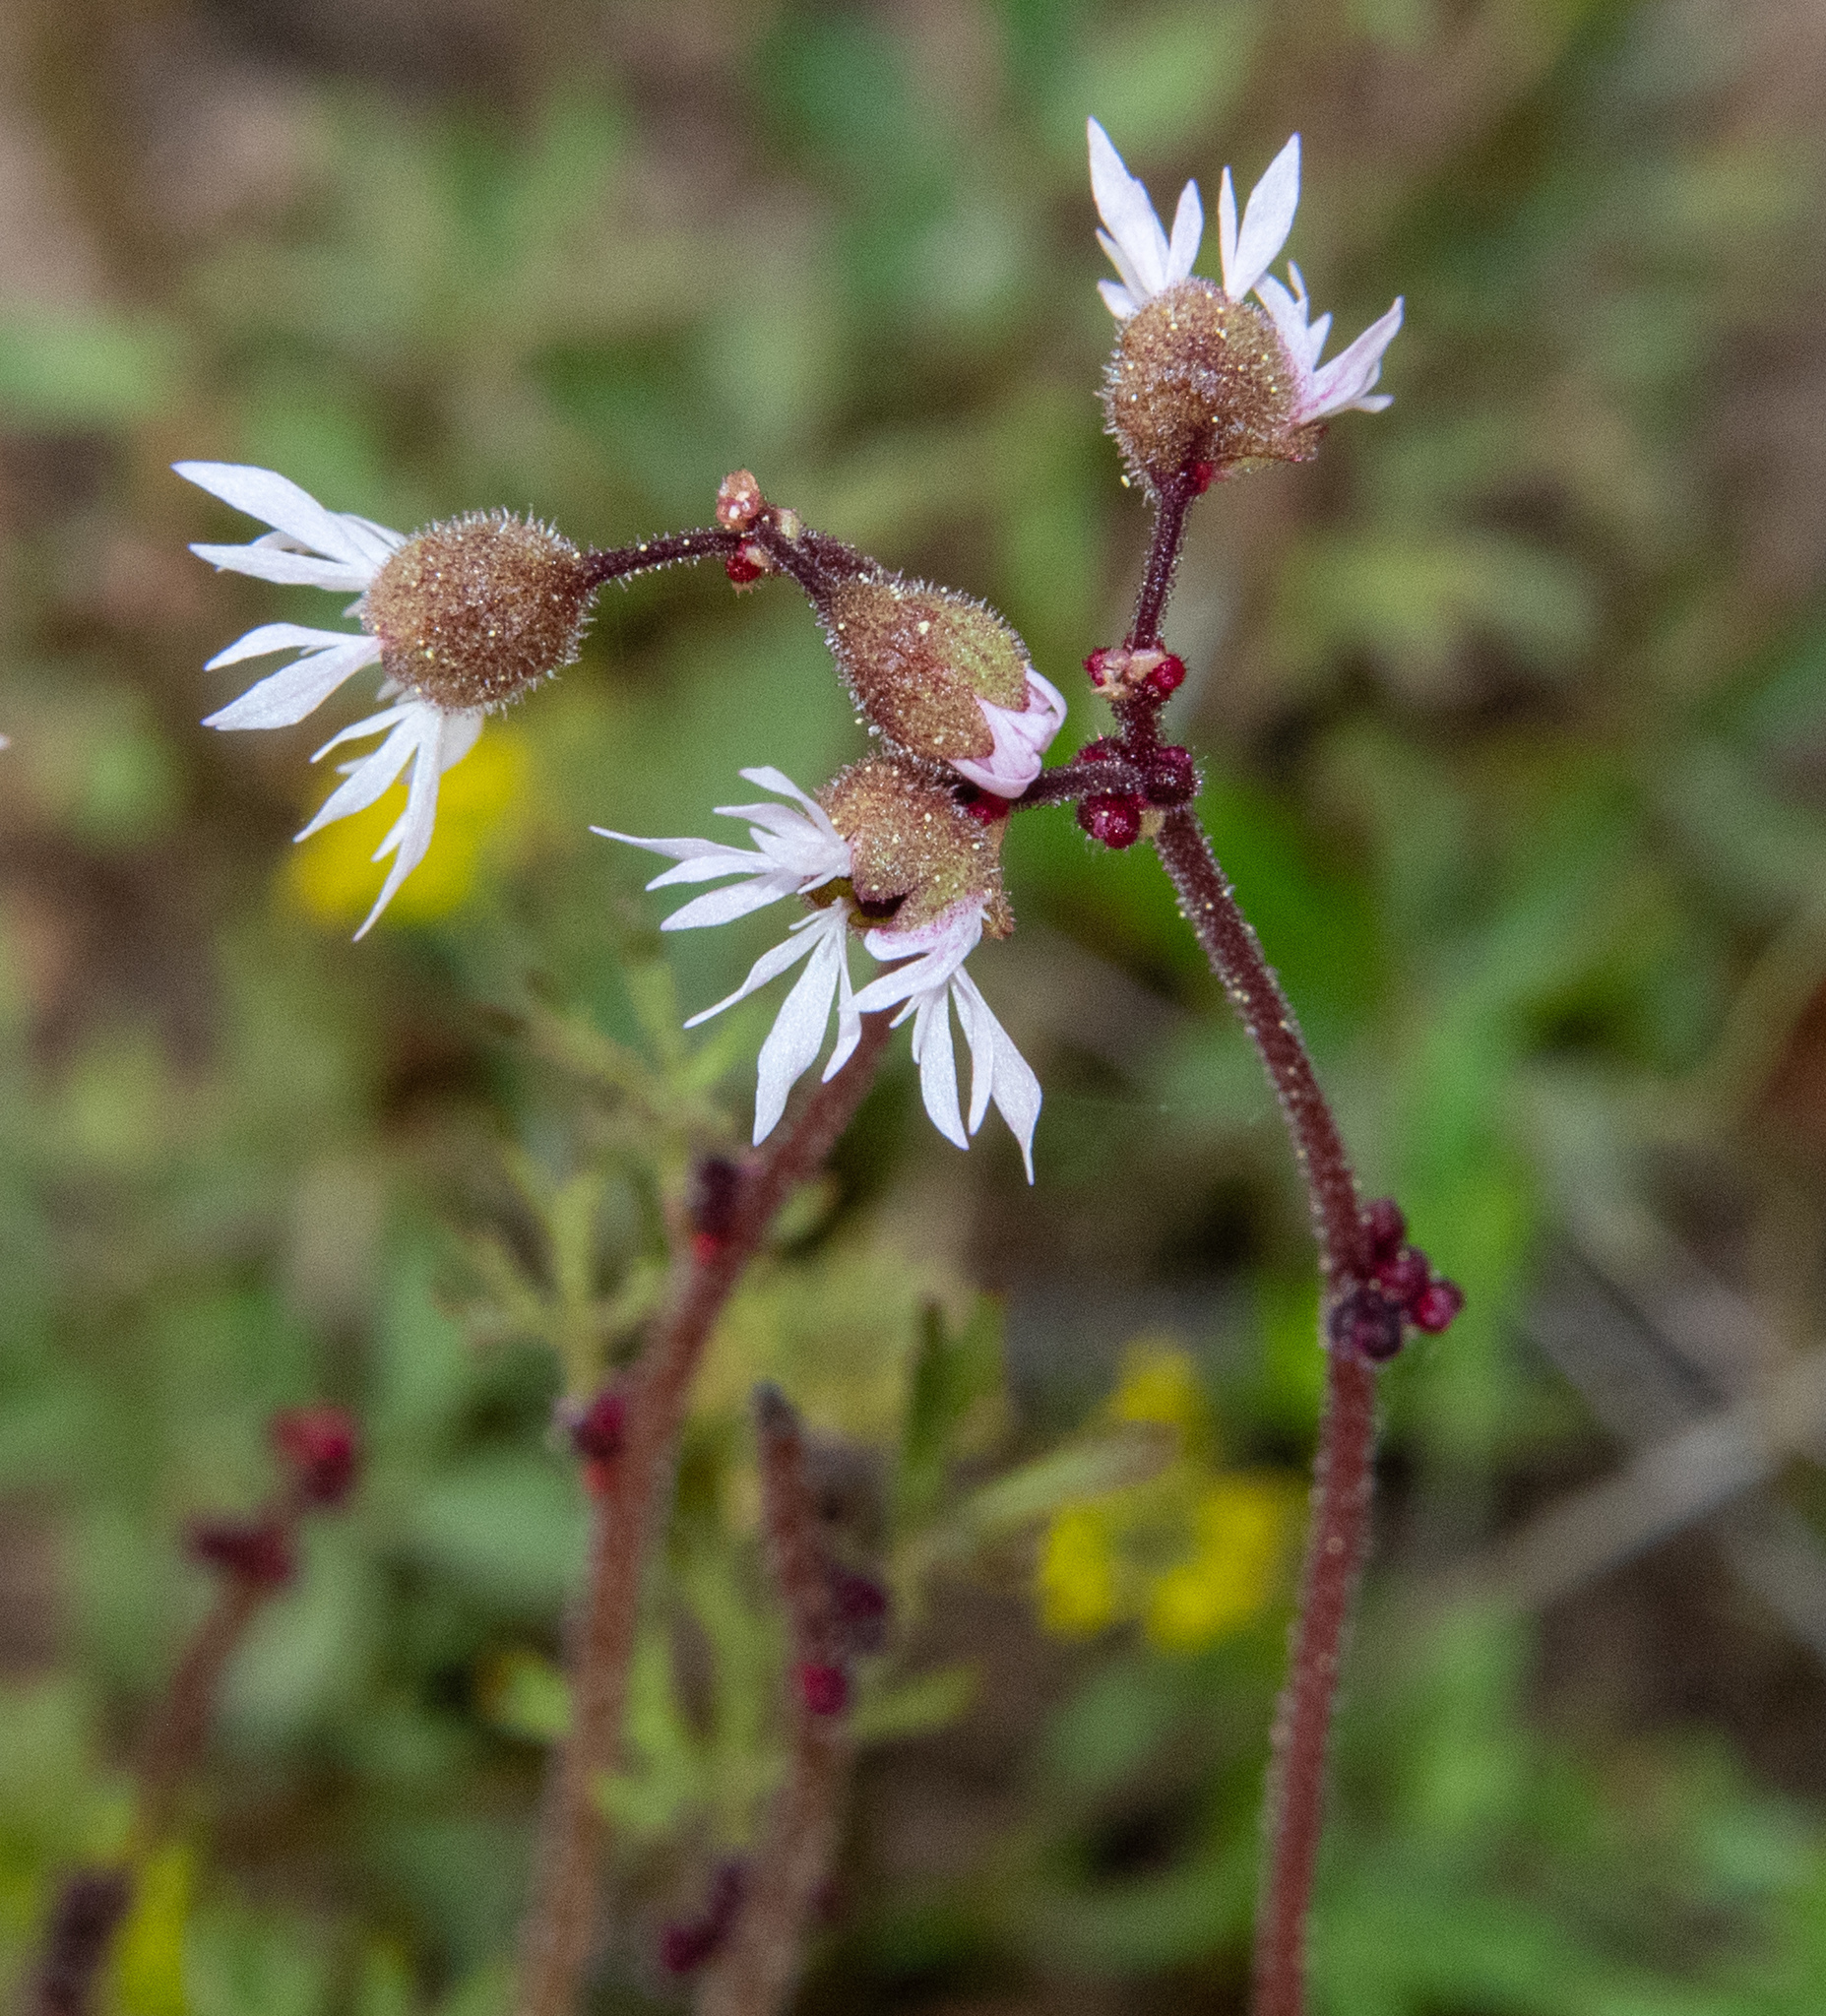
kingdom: Plantae
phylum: Tracheophyta
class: Magnoliopsida
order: Saxifragales
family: Saxifragaceae
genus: Lithophragma
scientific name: Lithophragma glabrum
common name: Bulbous prairie-star
